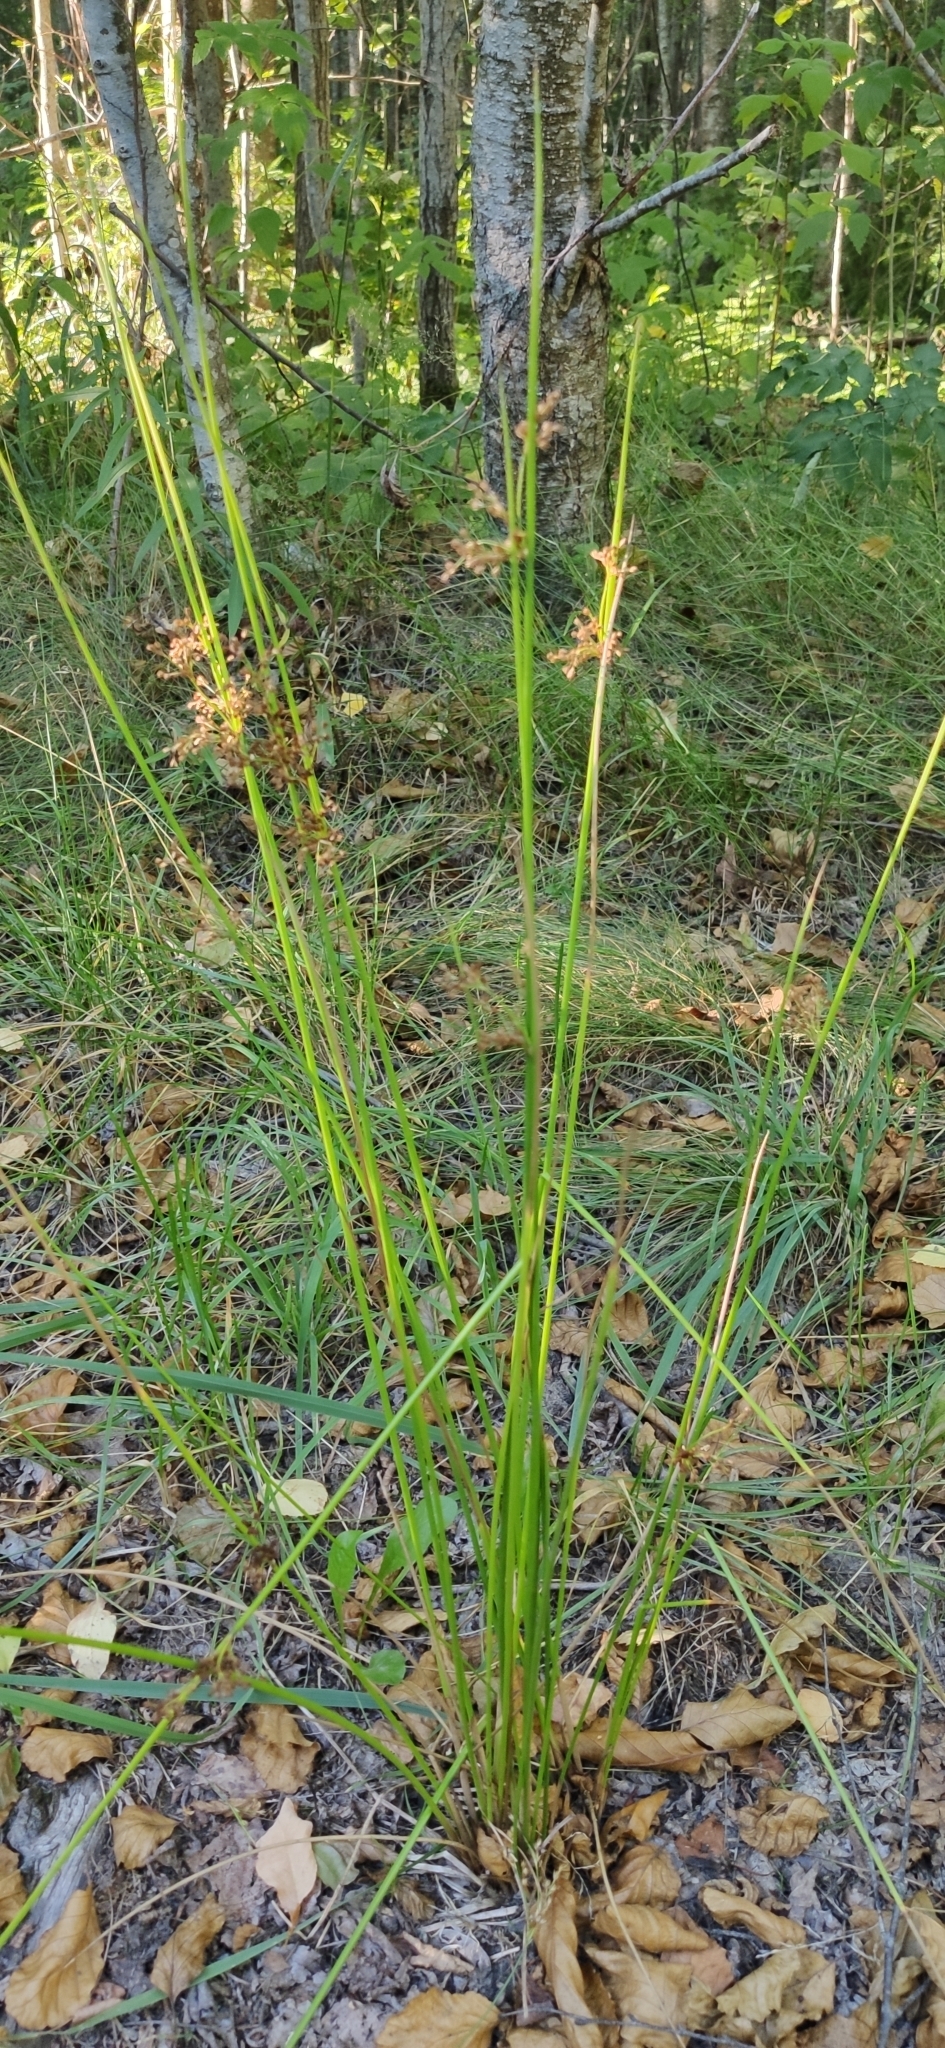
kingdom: Plantae
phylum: Tracheophyta
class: Liliopsida
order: Poales
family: Juncaceae
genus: Juncus
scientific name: Juncus effusus
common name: Soft rush
